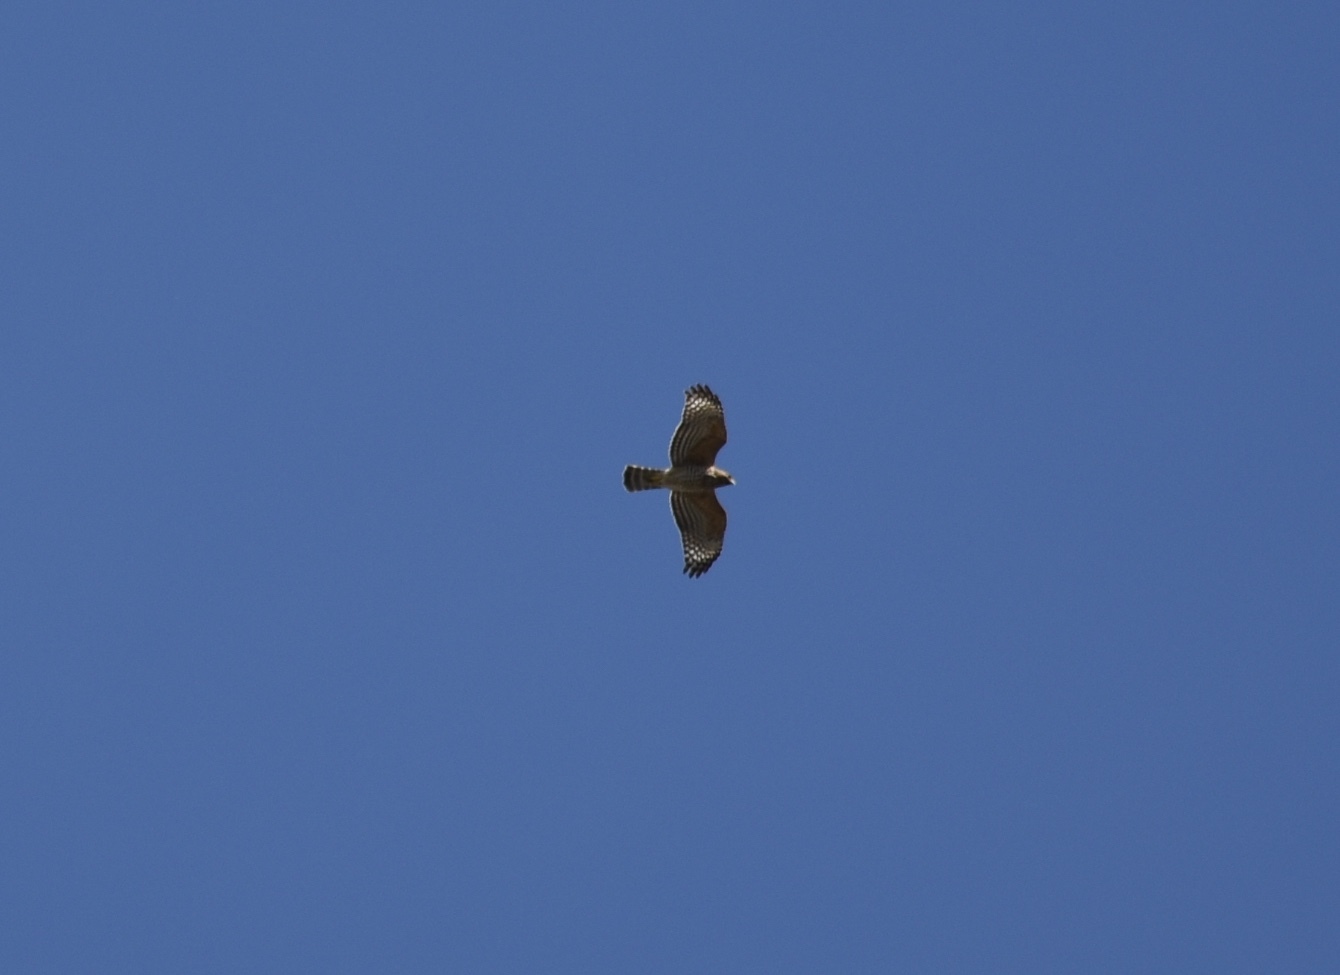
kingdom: Animalia
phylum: Chordata
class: Aves
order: Accipitriformes
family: Accipitridae
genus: Buteo
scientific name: Buteo lineatus
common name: Red-shouldered hawk
